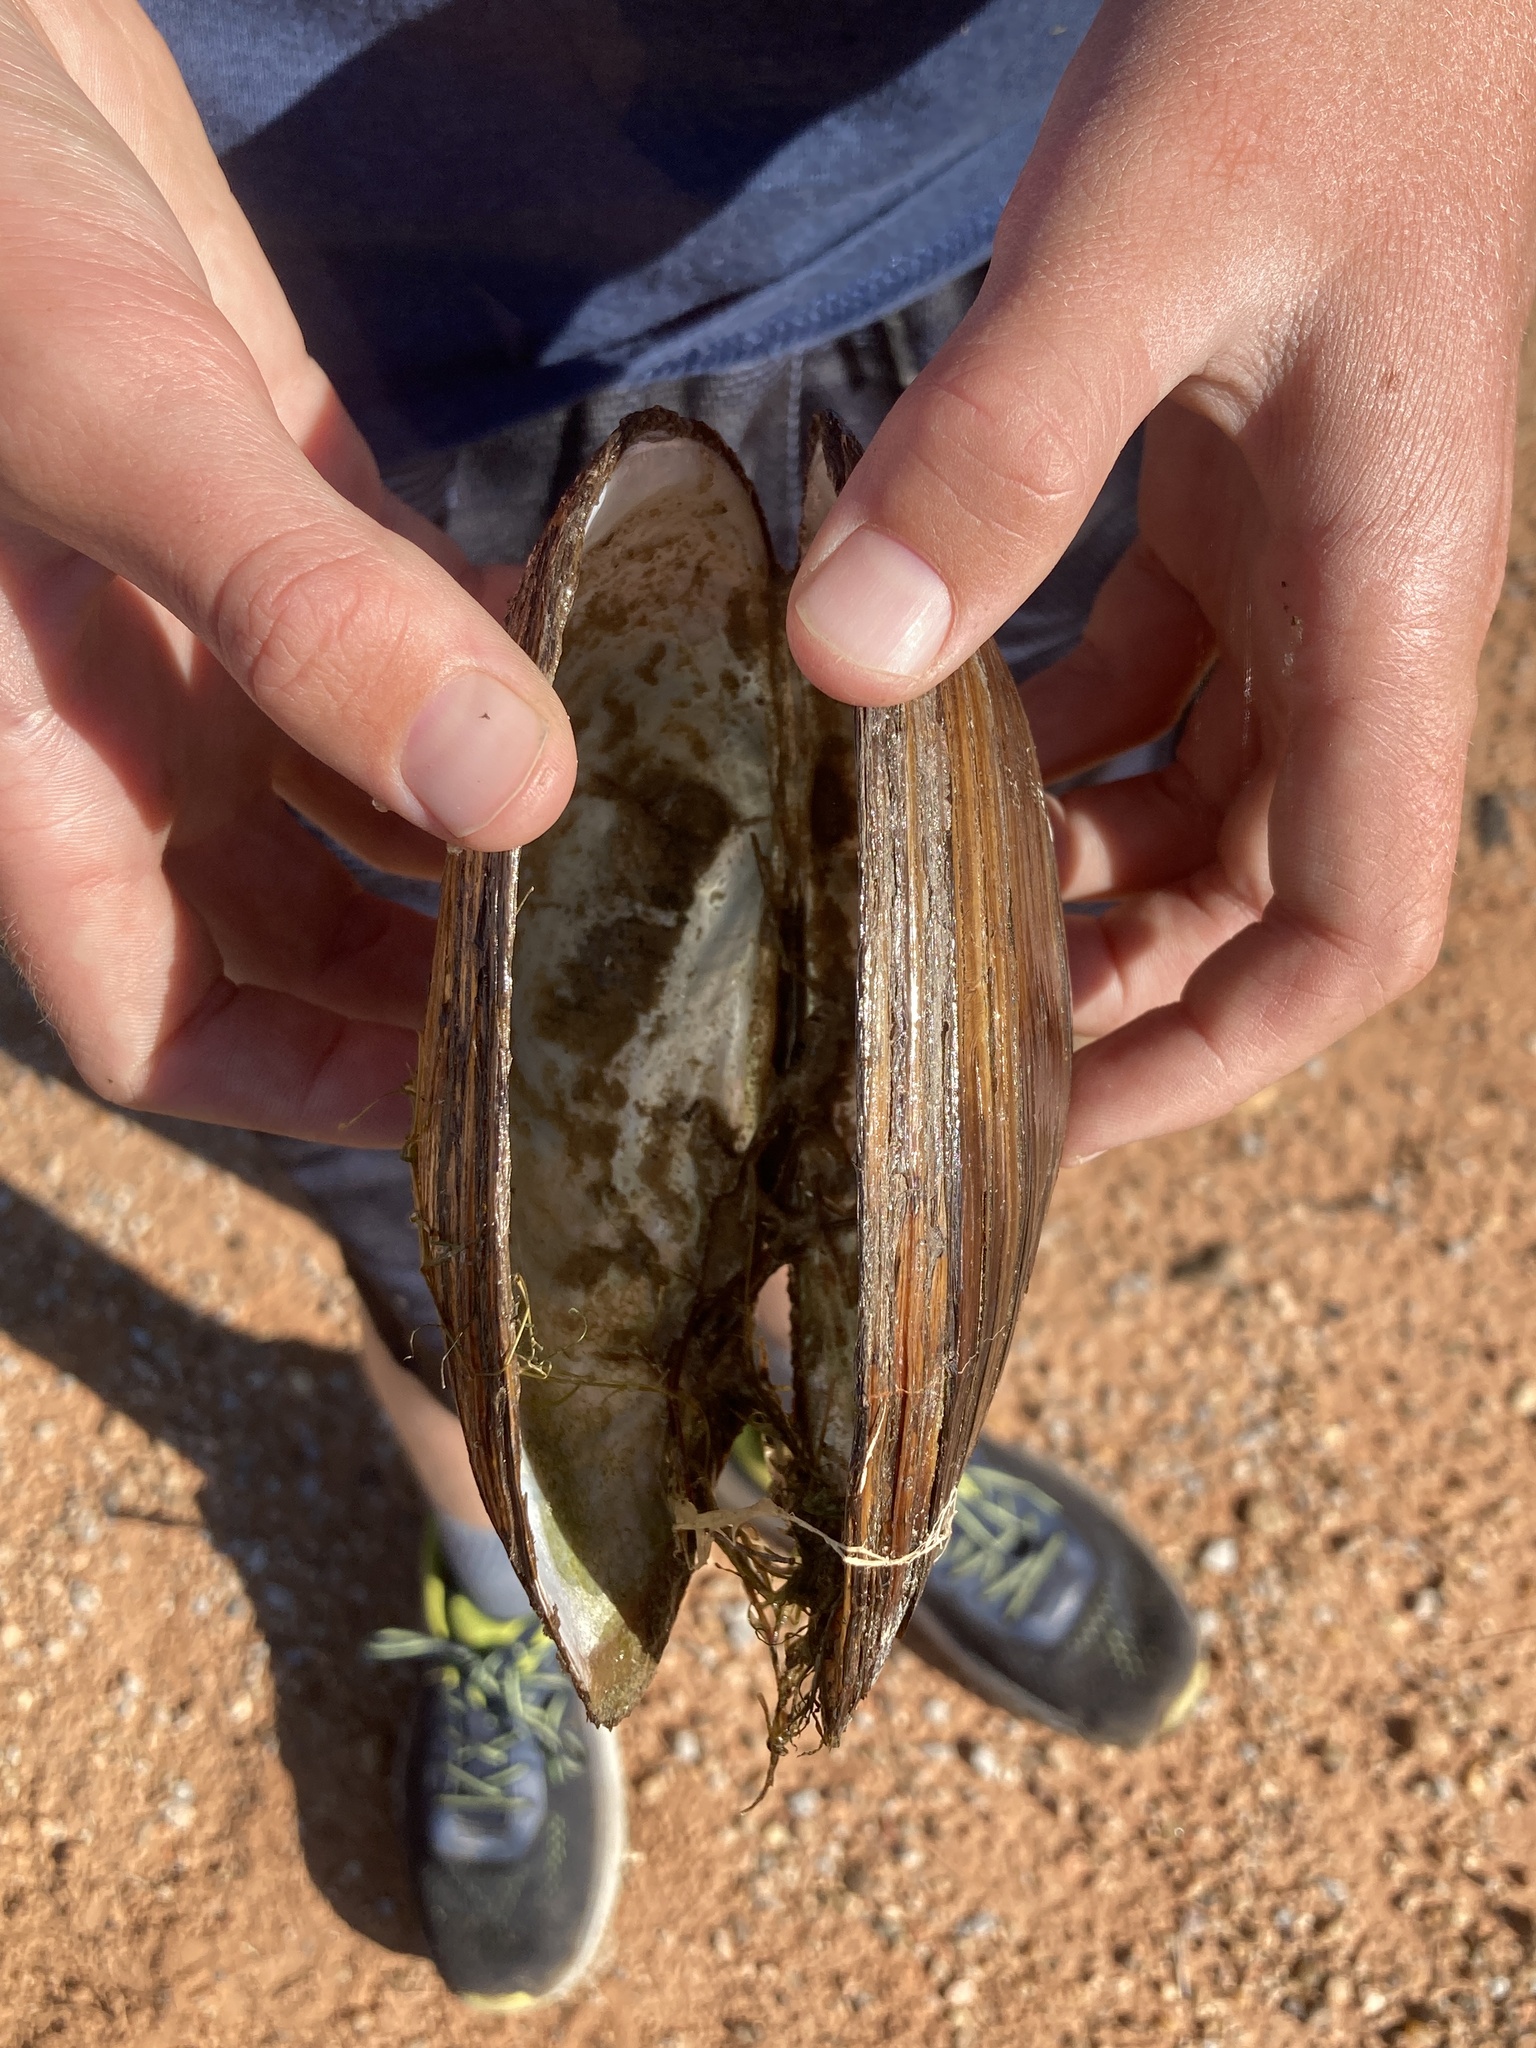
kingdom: Animalia
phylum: Mollusca
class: Bivalvia
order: Unionida
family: Unionidae
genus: Pyganodon
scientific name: Pyganodon grandis
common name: Giant floater
